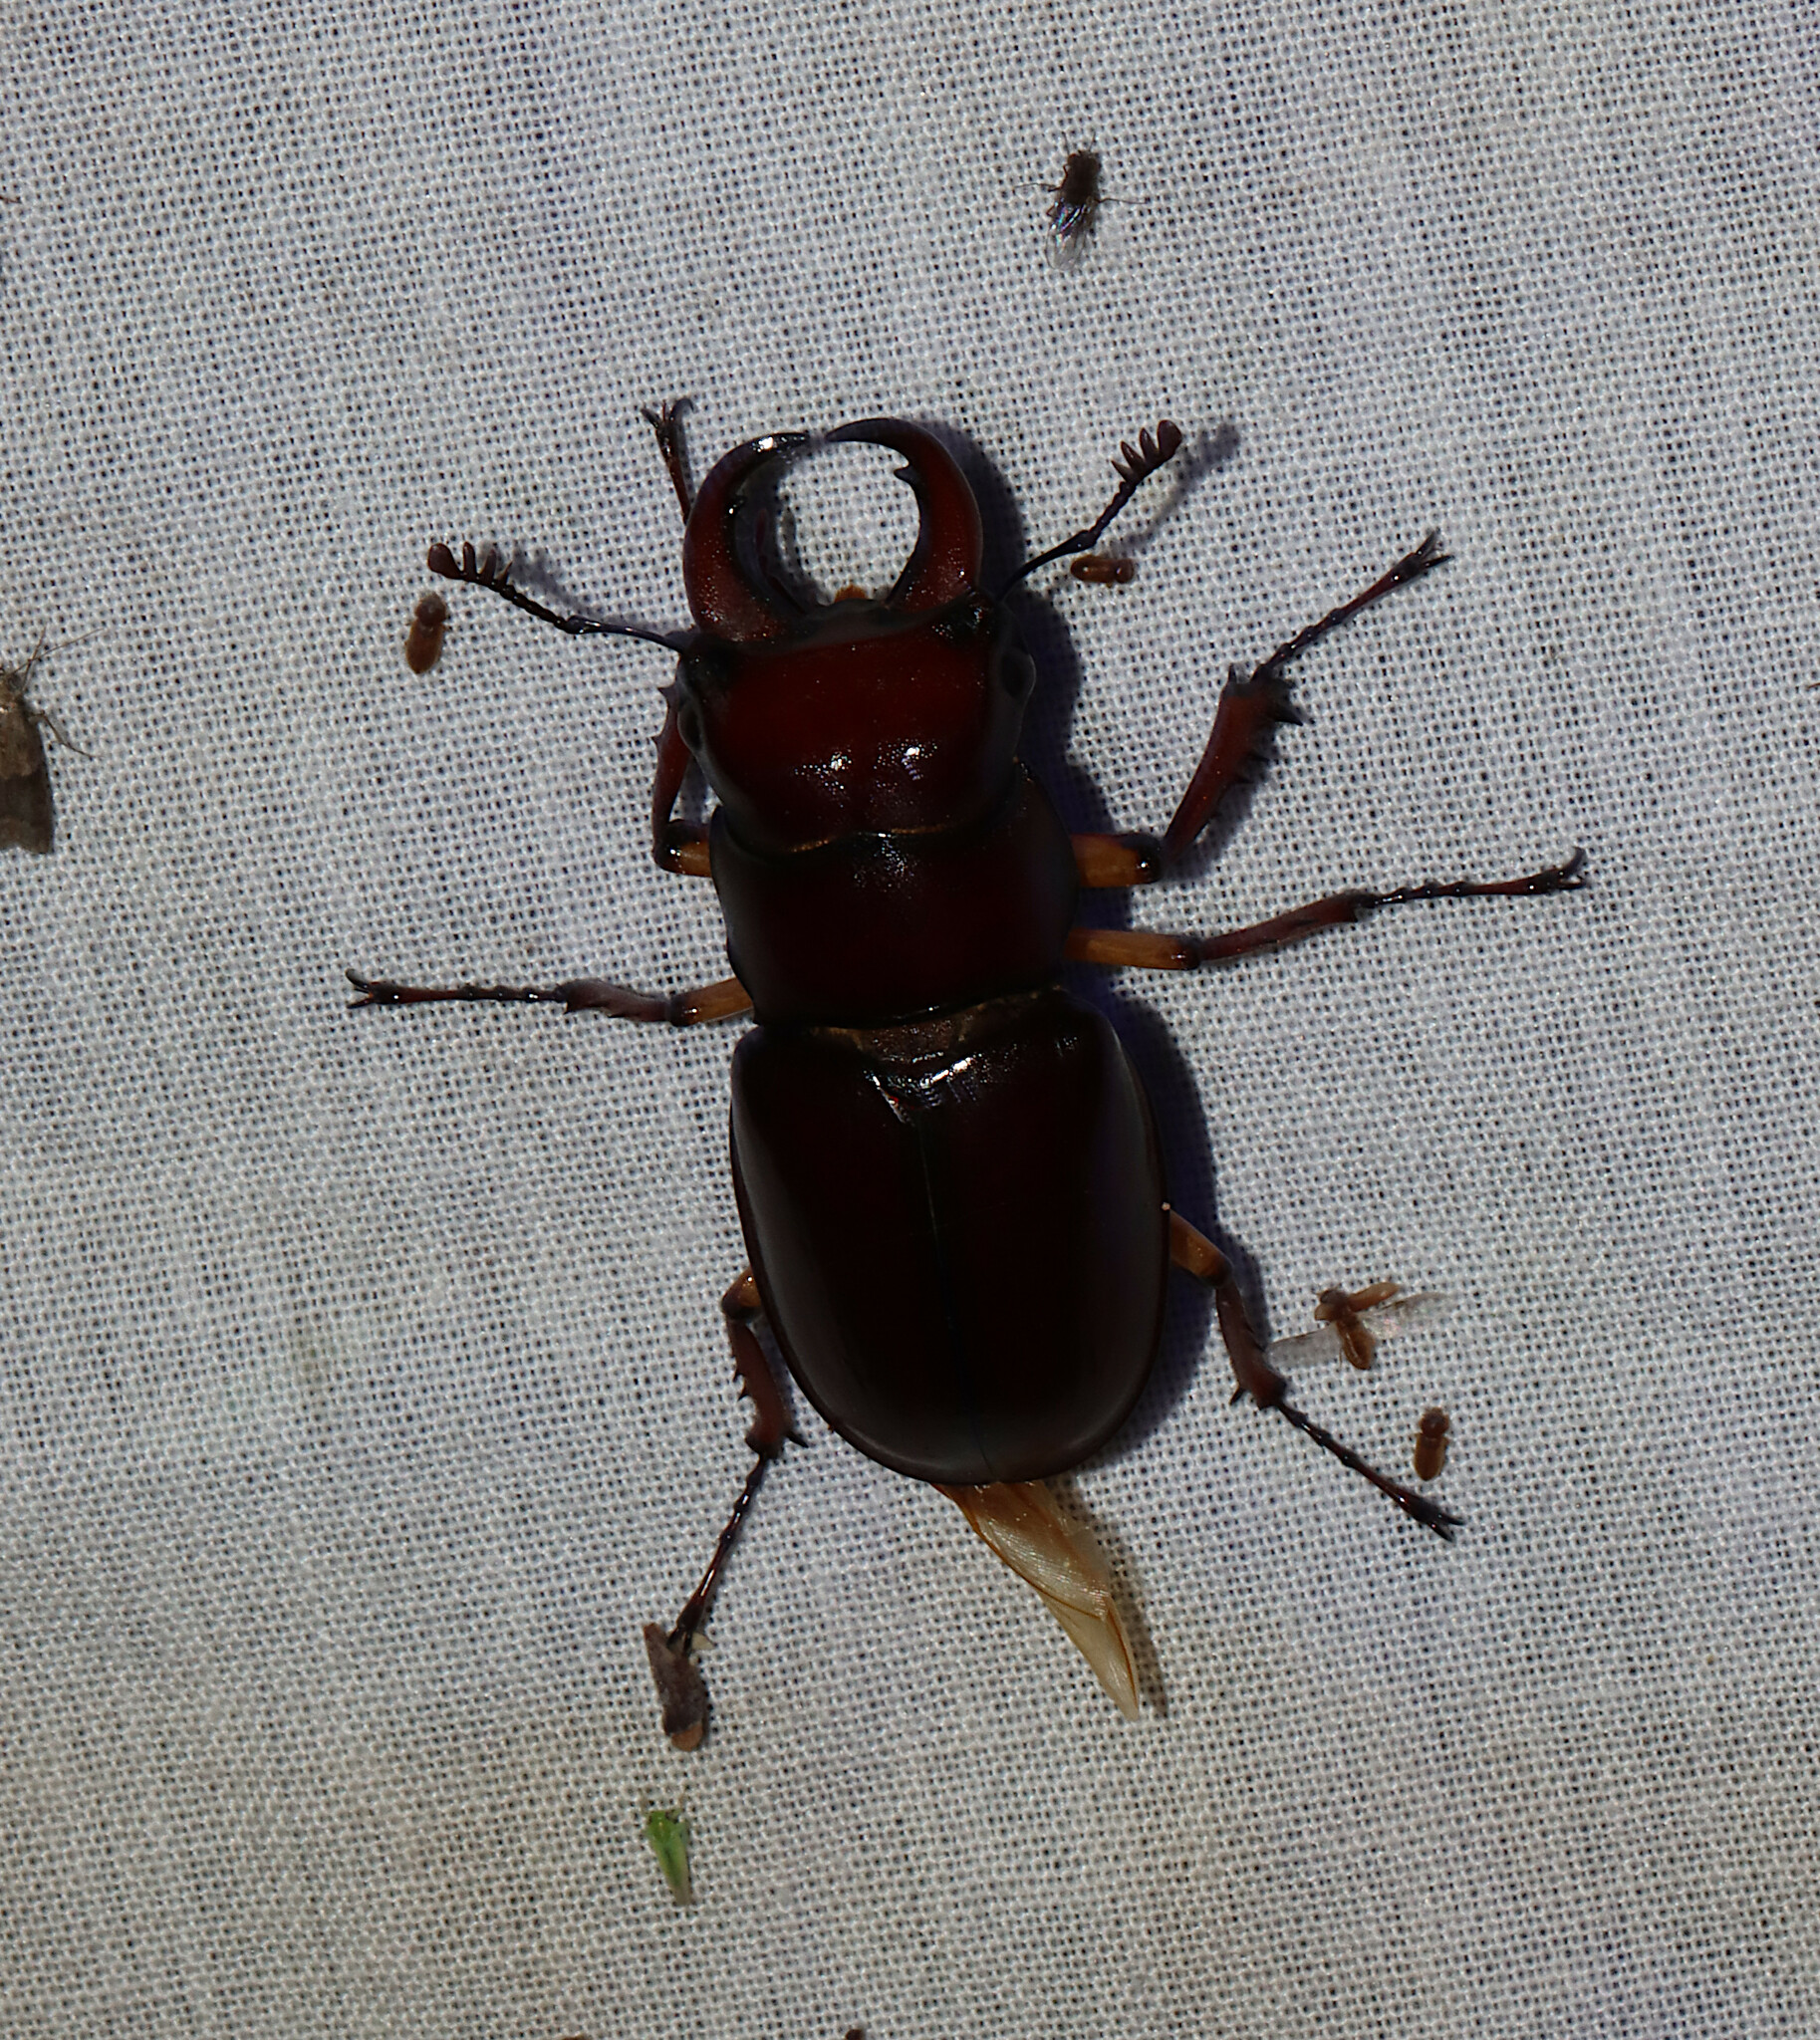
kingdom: Animalia
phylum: Arthropoda
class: Insecta
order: Coleoptera
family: Lucanidae
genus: Lucanus
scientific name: Lucanus capreolus
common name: Stag beetle
